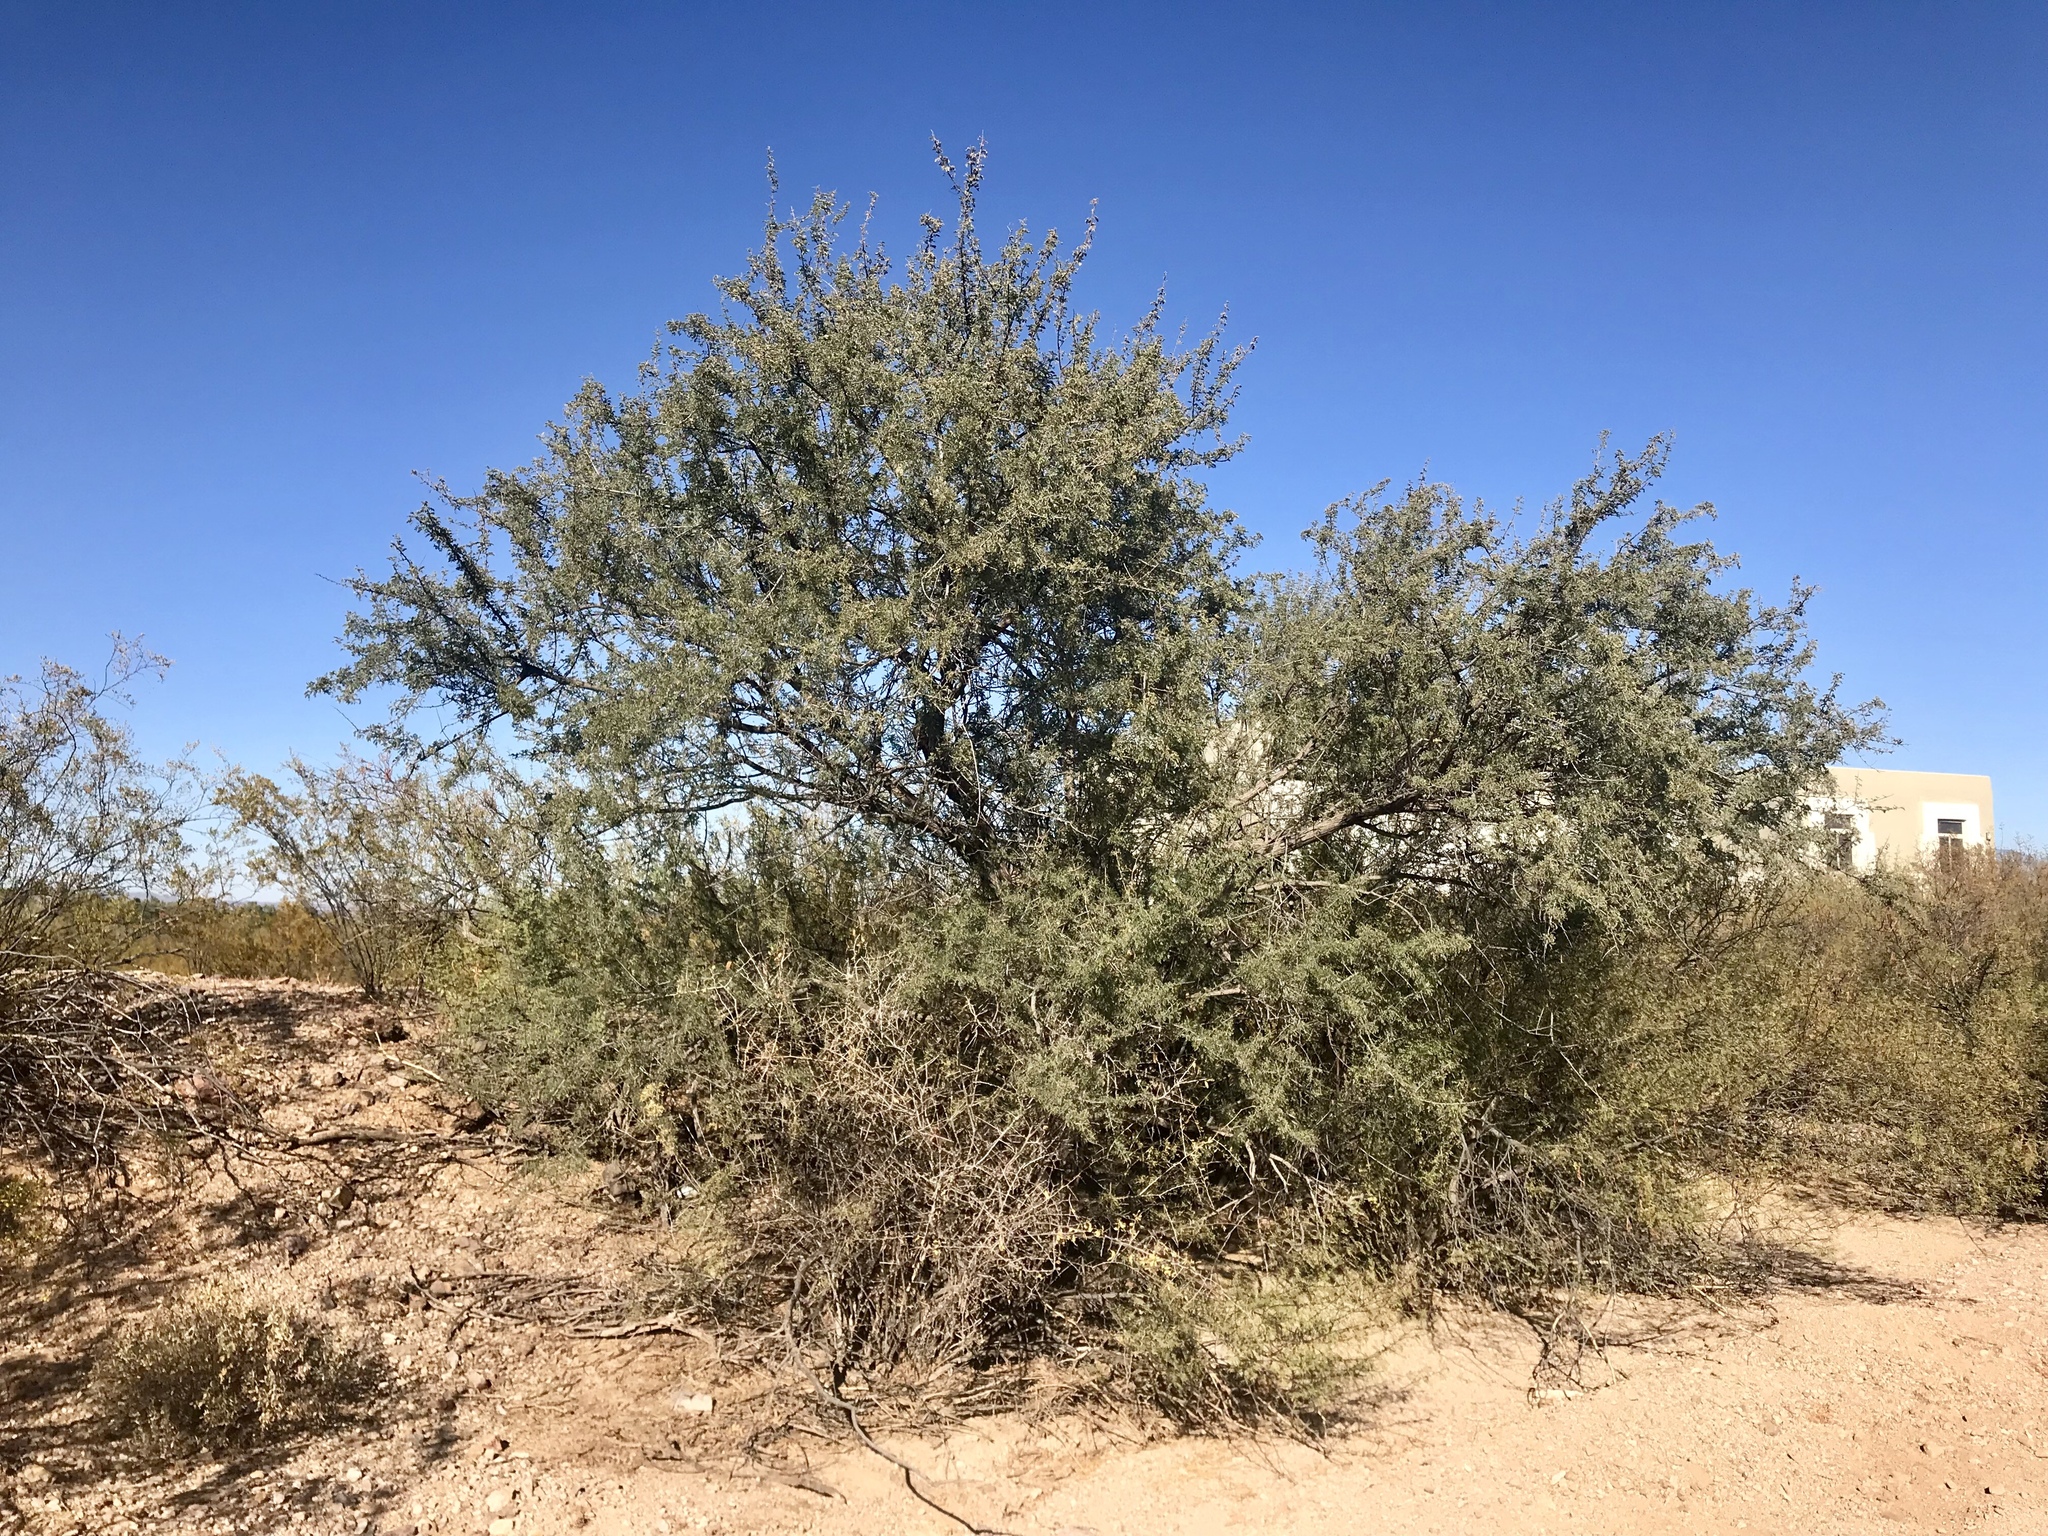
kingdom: Plantae
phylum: Tracheophyta
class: Magnoliopsida
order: Fabales
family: Fabaceae
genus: Olneya
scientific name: Olneya tesota
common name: Desert ironwood
